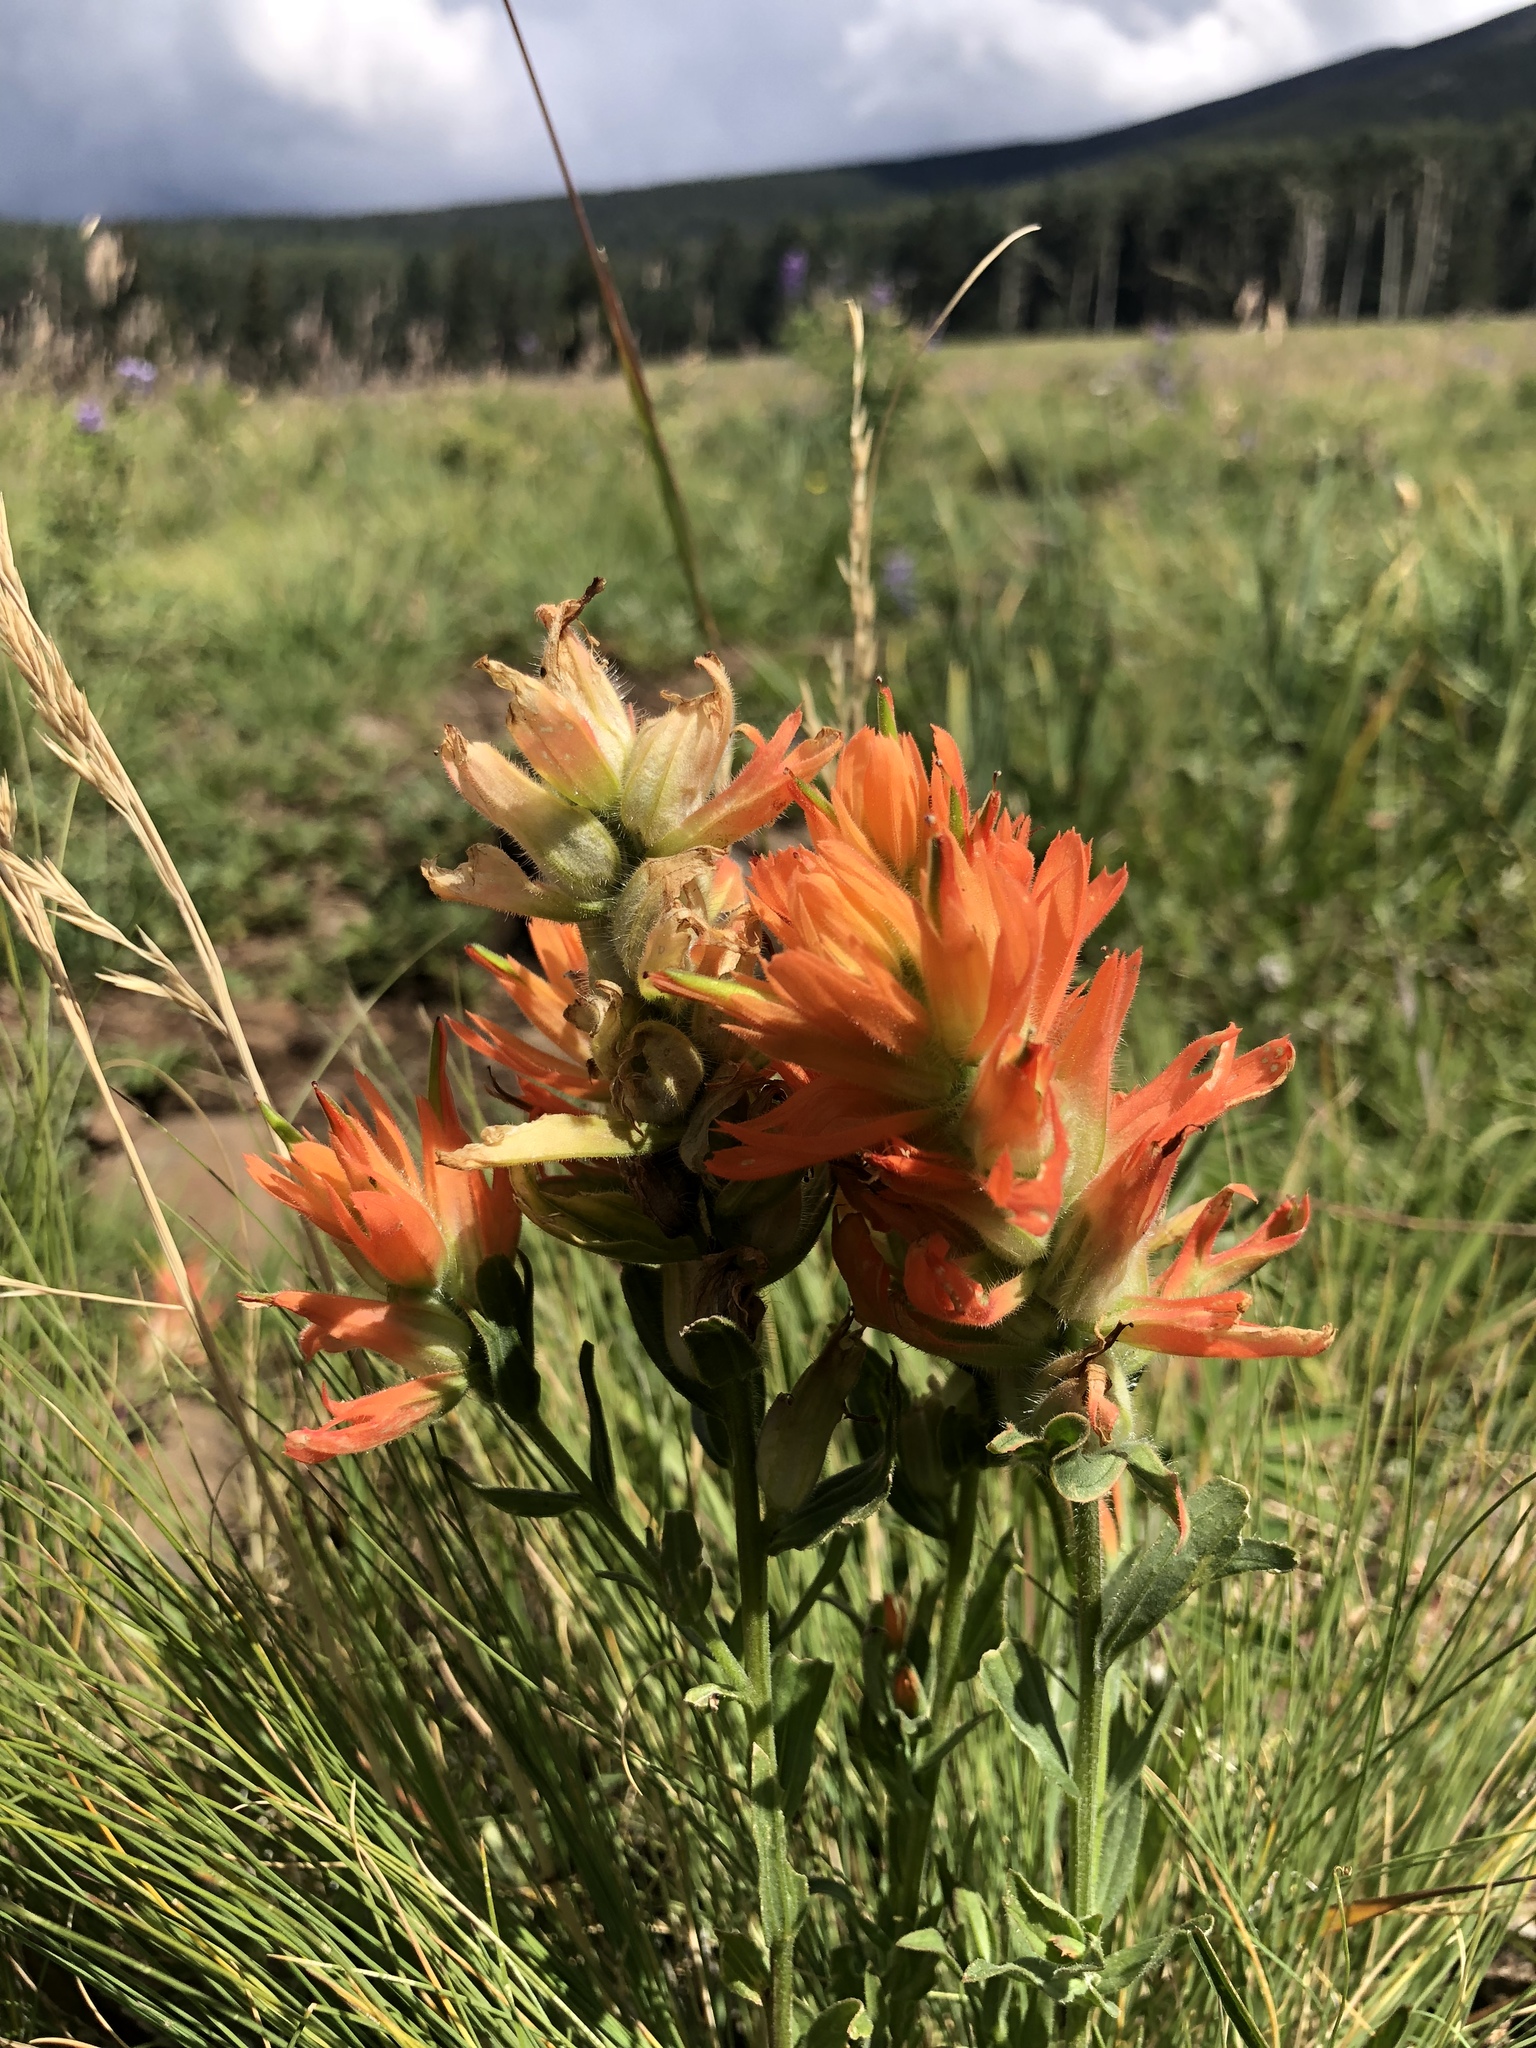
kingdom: Plantae
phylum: Tracheophyta
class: Magnoliopsida
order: Lamiales
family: Orobanchaceae
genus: Castilleja
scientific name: Castilleja miniata
